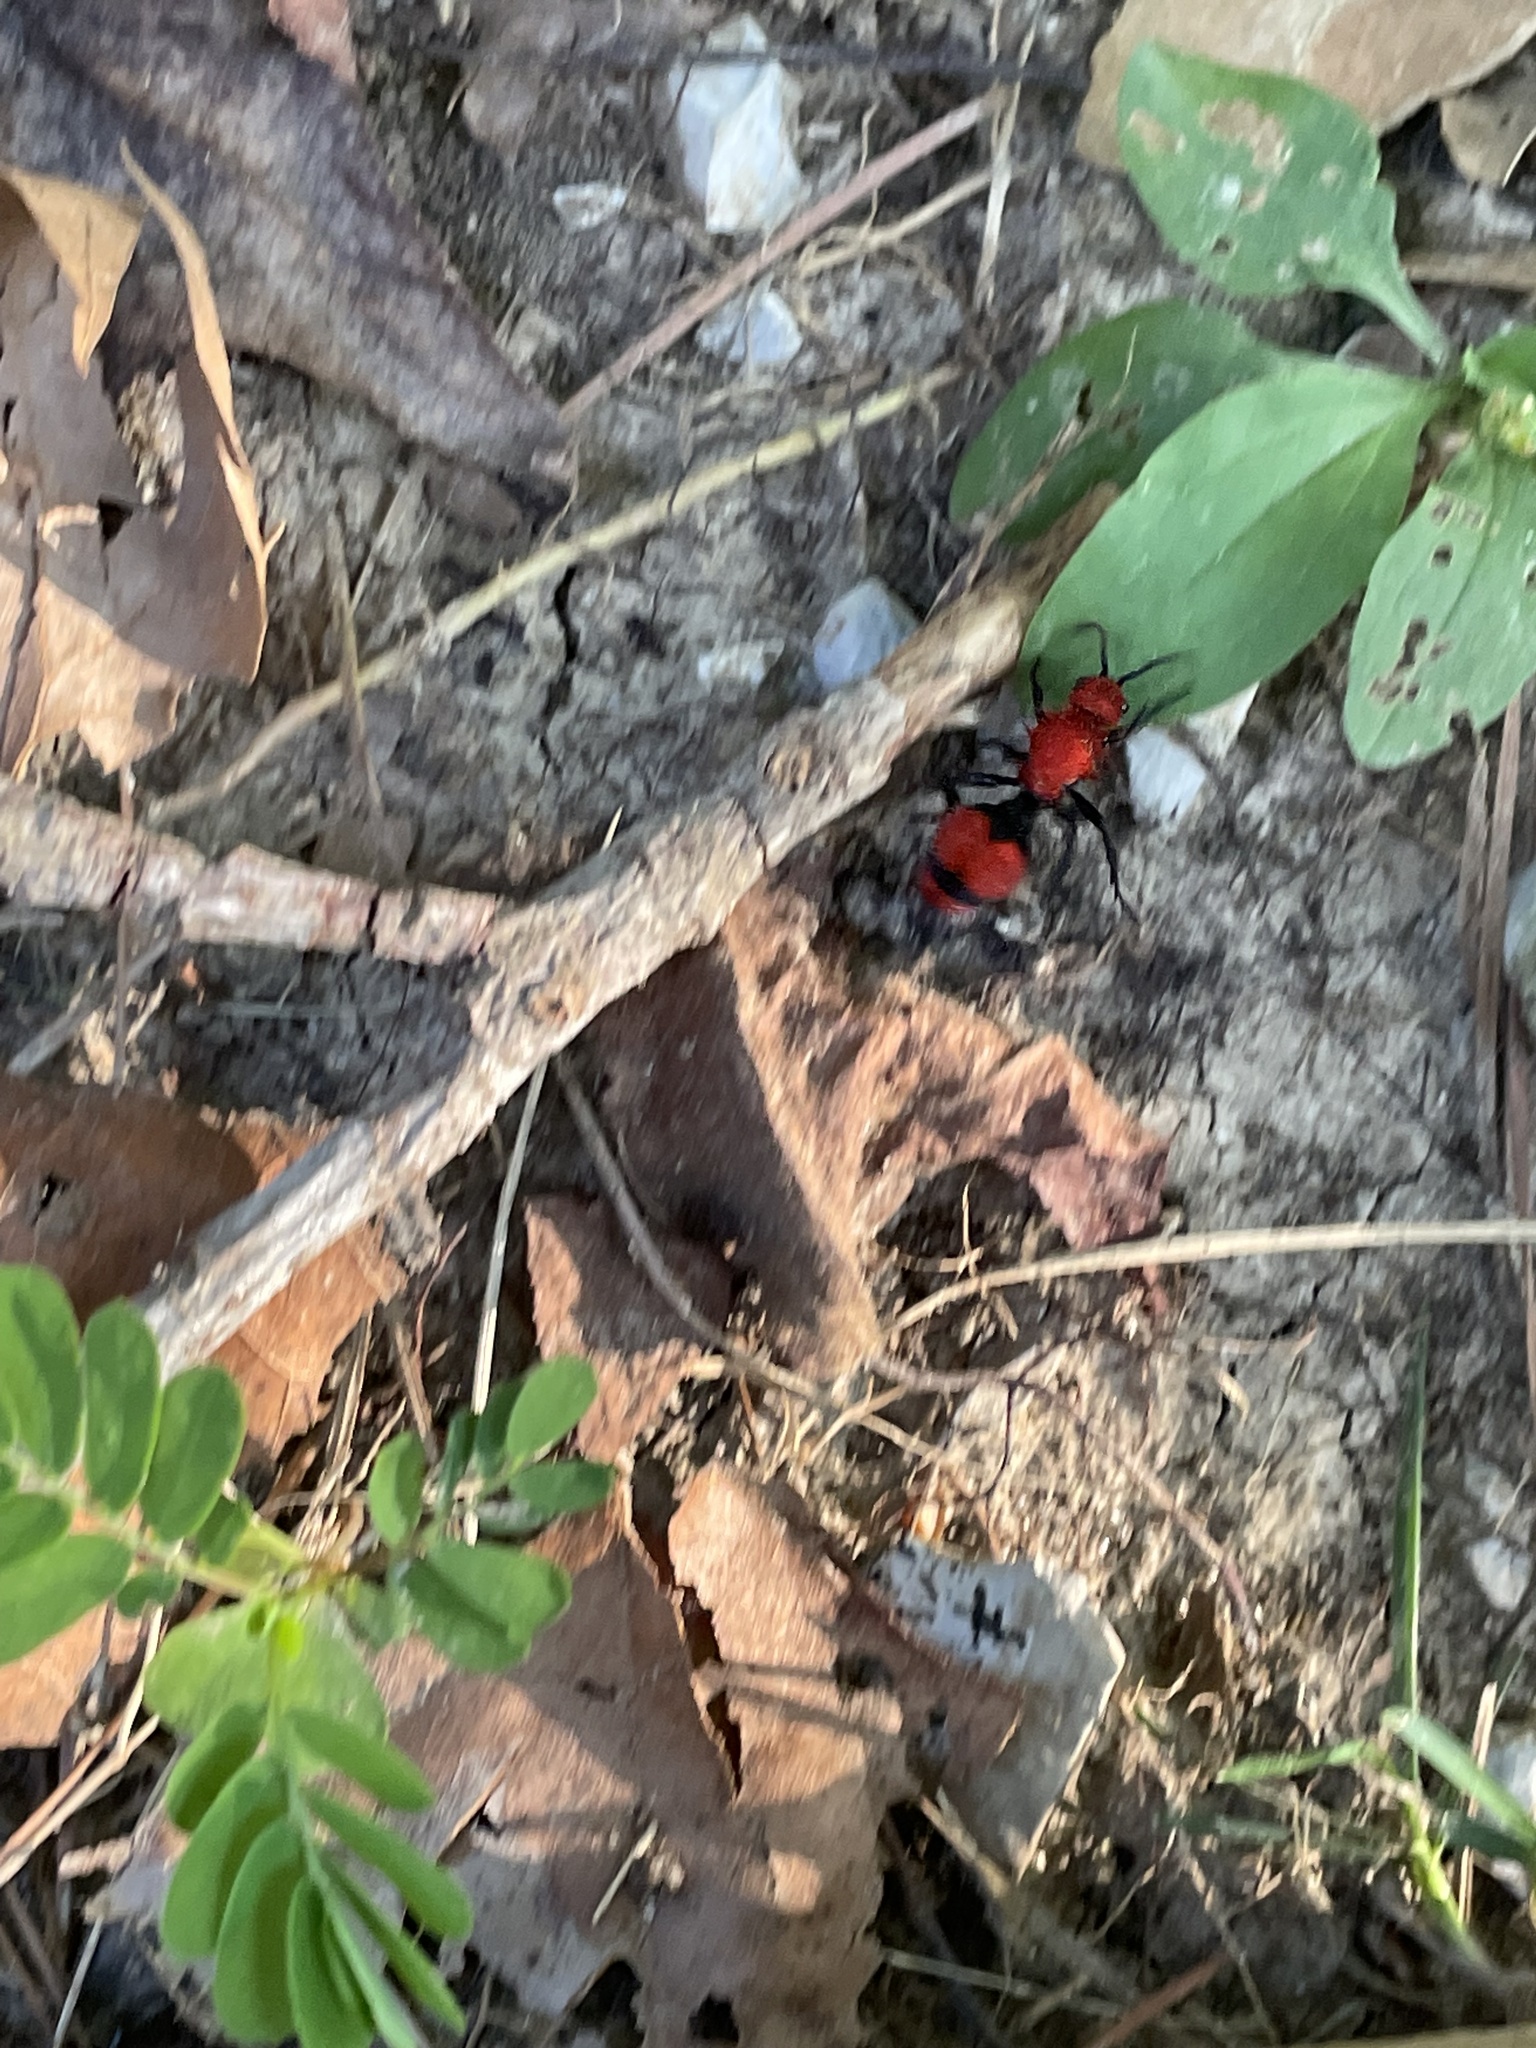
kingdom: Animalia
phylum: Arthropoda
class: Insecta
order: Hymenoptera
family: Mutillidae
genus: Dasymutilla
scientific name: Dasymutilla occidentalis
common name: Common eastern velvet ant
